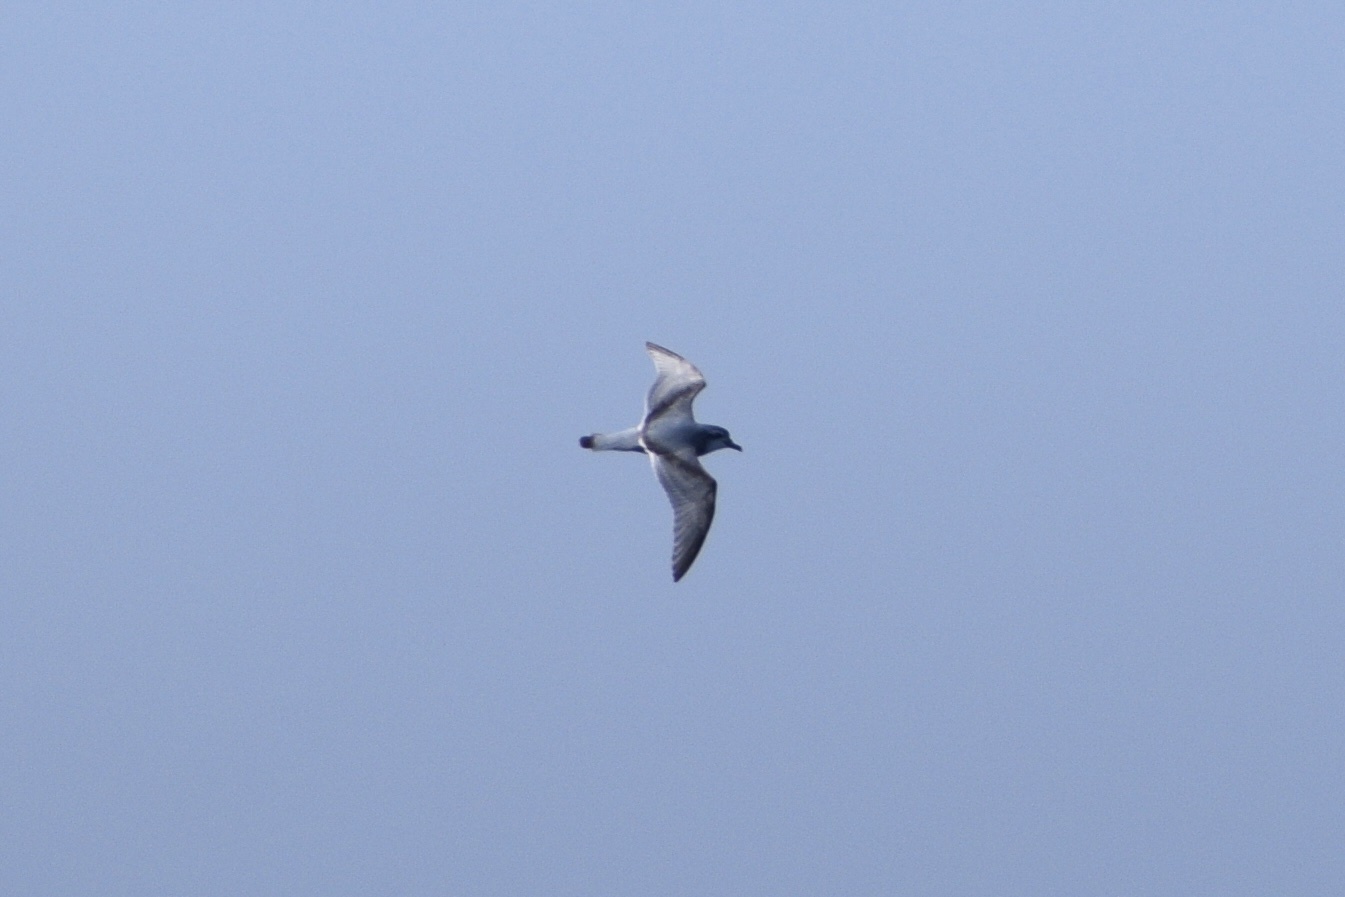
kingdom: Animalia
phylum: Chordata
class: Aves
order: Procellariiformes
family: Procellariidae
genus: Pachyptila
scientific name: Pachyptila desolata
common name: Antarctic prion
